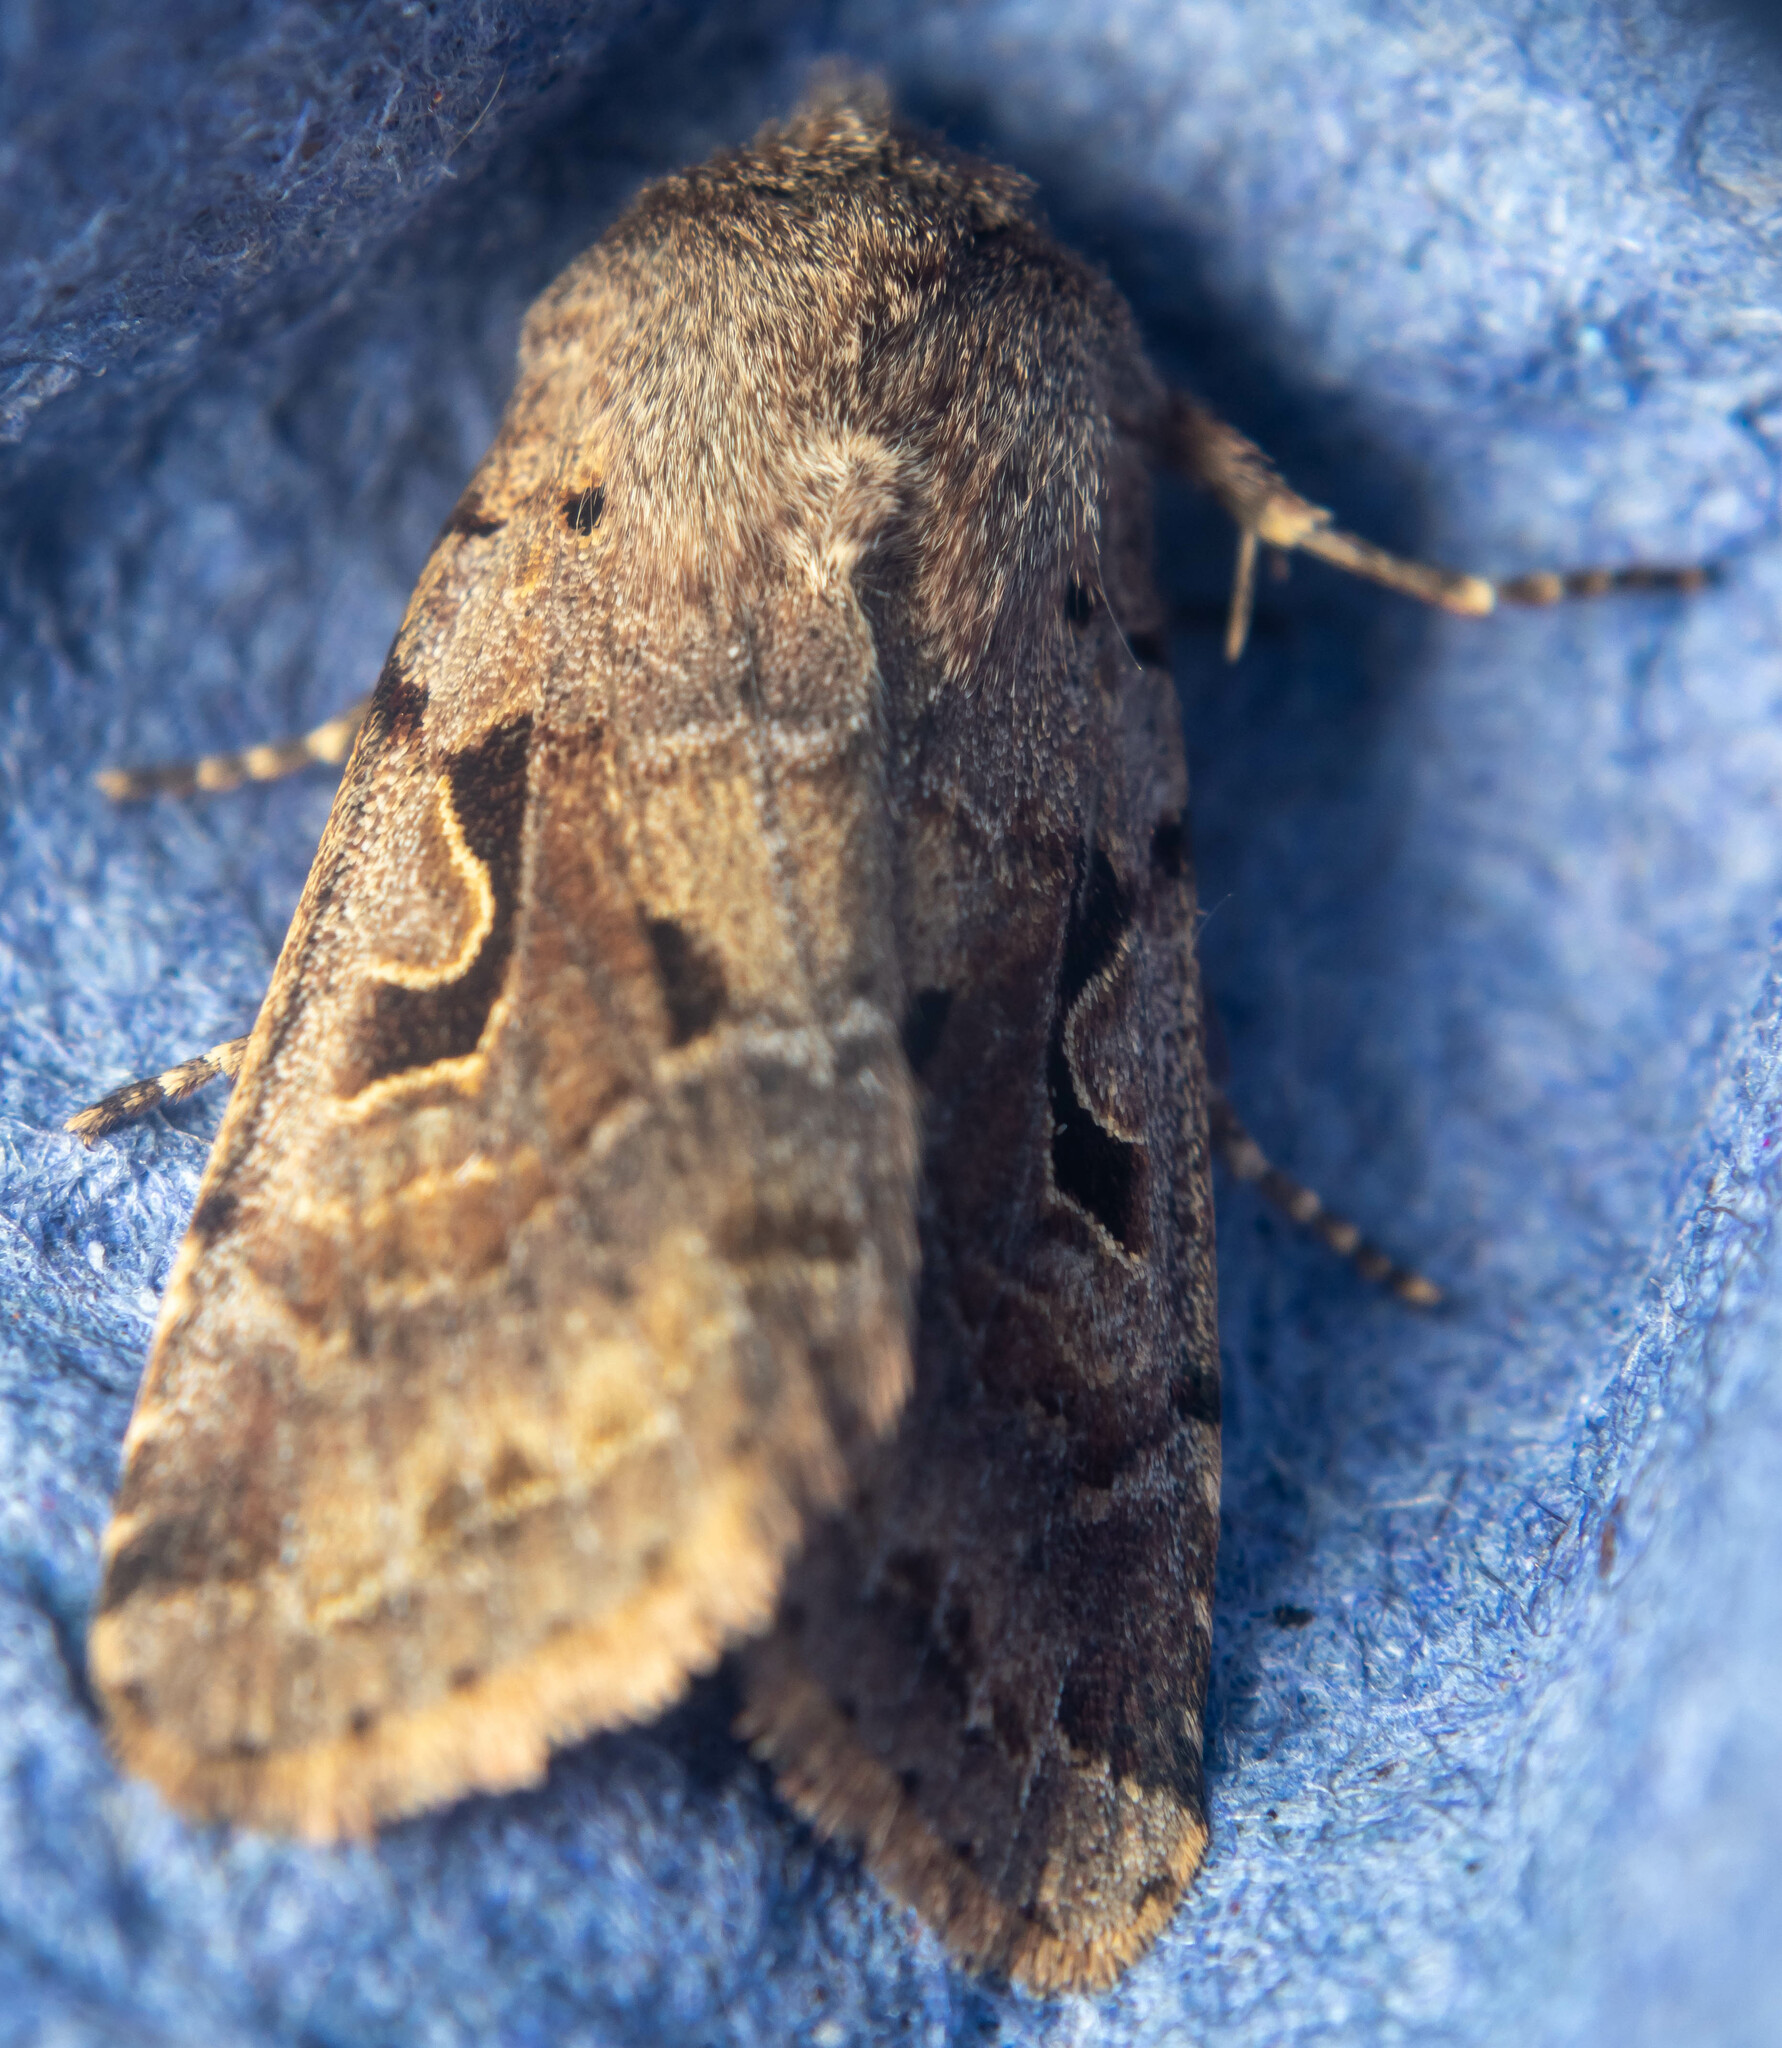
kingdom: Animalia
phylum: Arthropoda
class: Insecta
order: Lepidoptera
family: Noctuidae
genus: Orthosia
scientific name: Orthosia gothica
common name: Hebrew character
